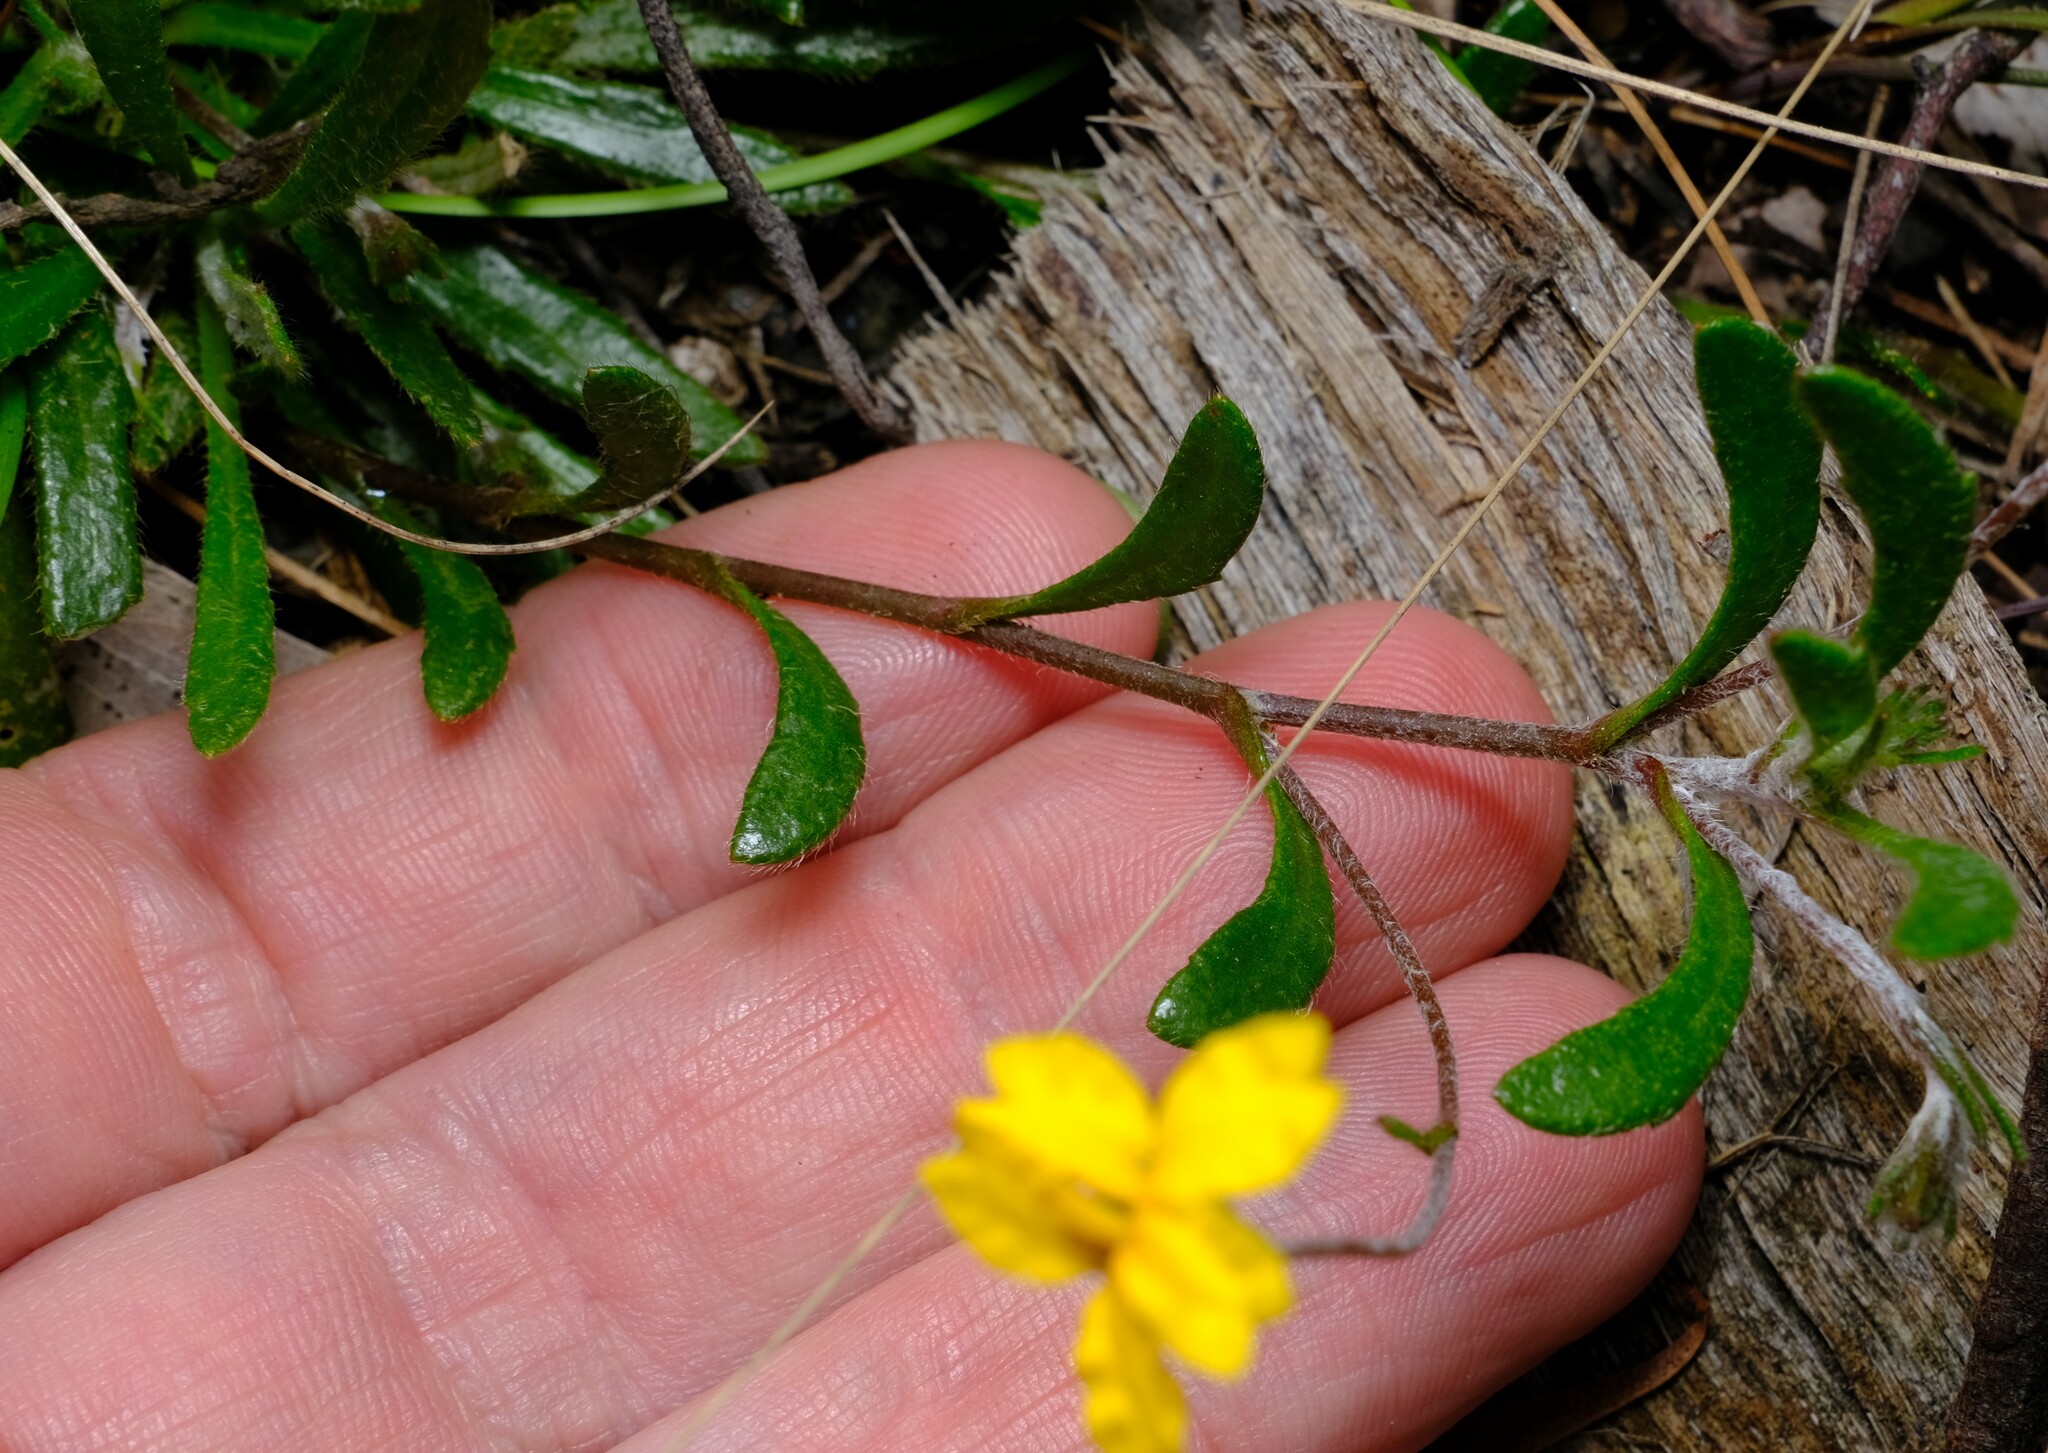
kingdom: Plantae
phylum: Tracheophyta
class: Magnoliopsida
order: Asterales
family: Goodeniaceae
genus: Goodenia
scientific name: Goodenia geniculata
